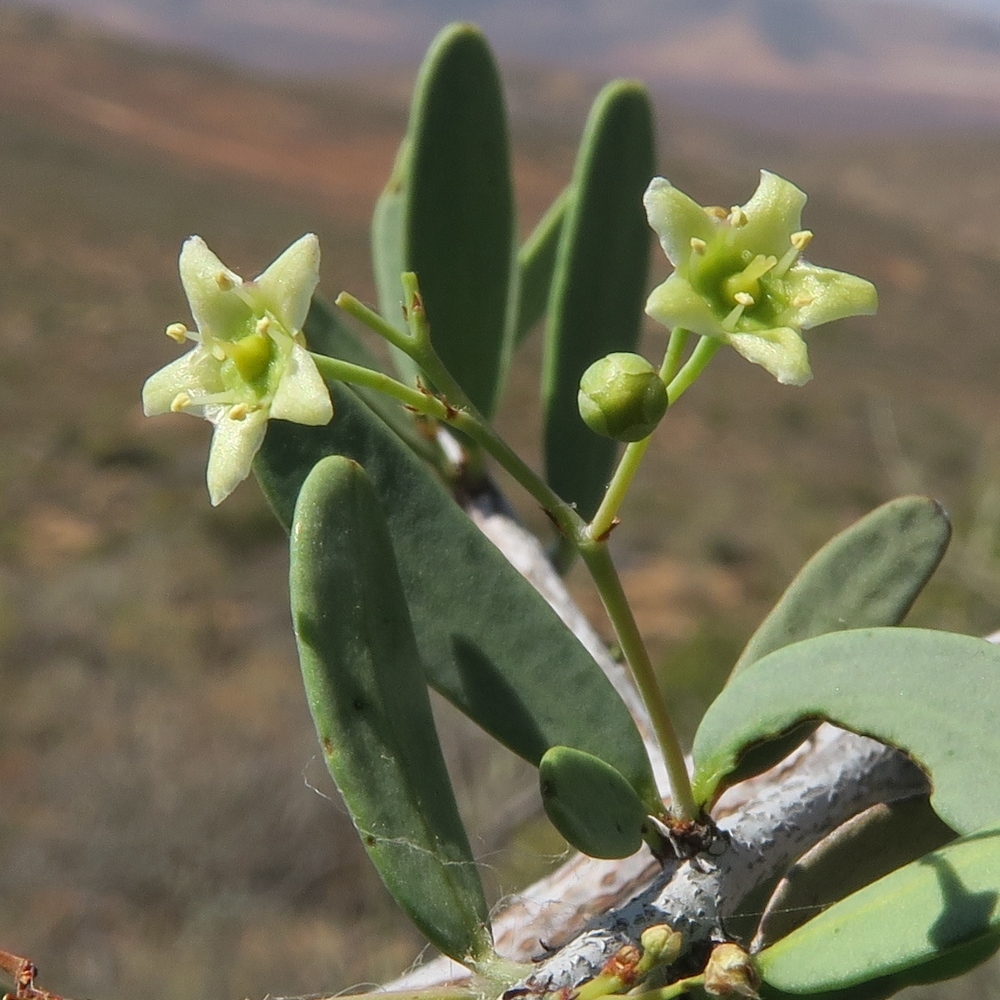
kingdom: Plantae
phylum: Tracheophyta
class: Magnoliopsida
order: Celastrales
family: Celastraceae
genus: Gloveria
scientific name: Gloveria integrifolia
